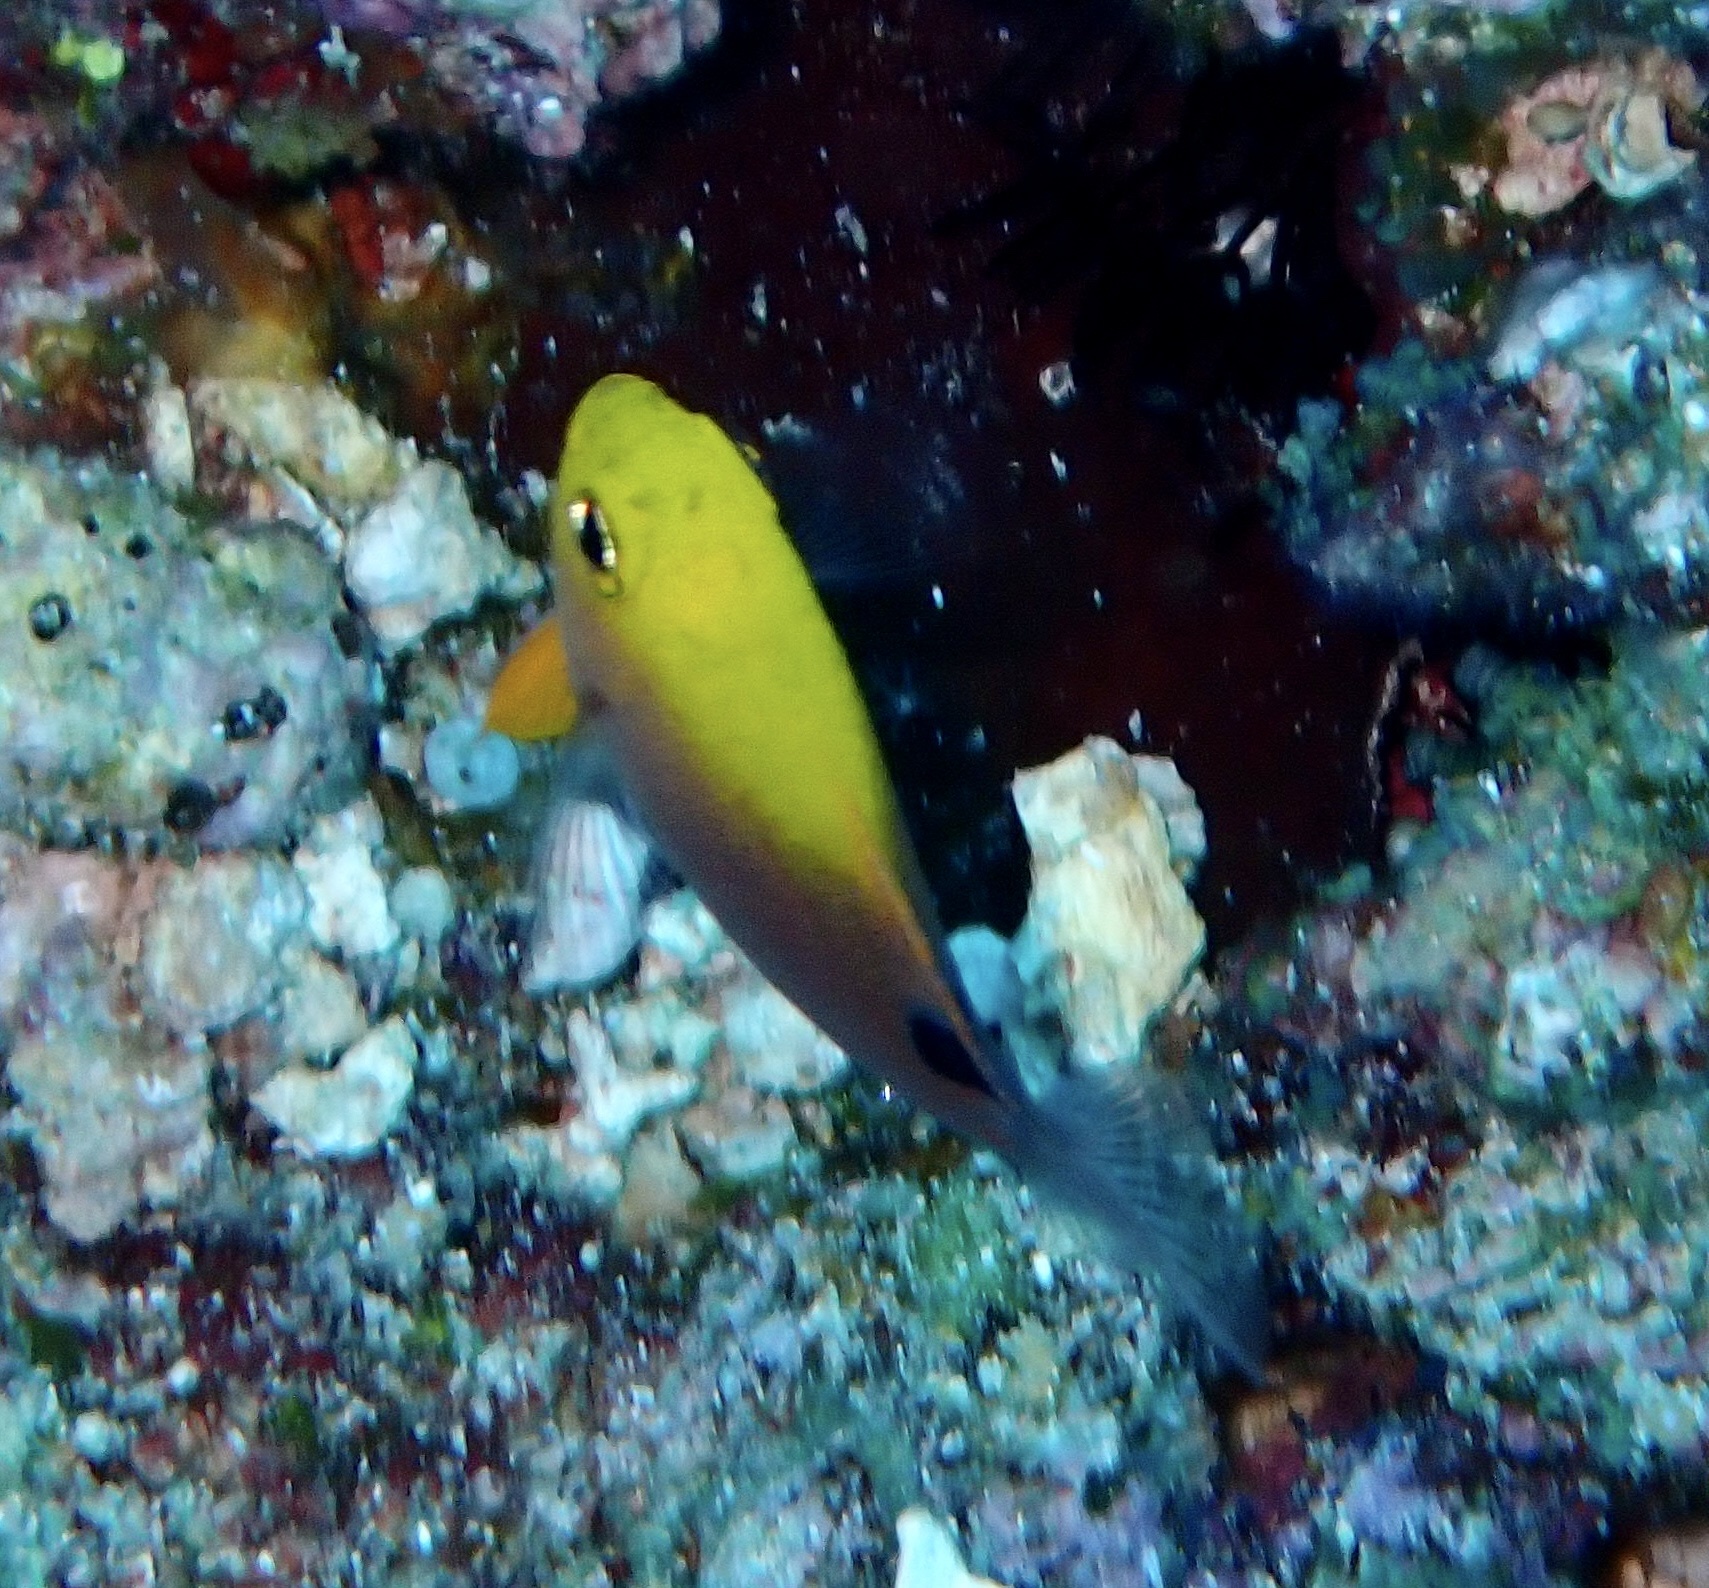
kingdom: Animalia
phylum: Chordata
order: Perciformes
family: Pomacentridae
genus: Chrysiptera
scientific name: Chrysiptera talboti
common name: Talbot's demoiselle
